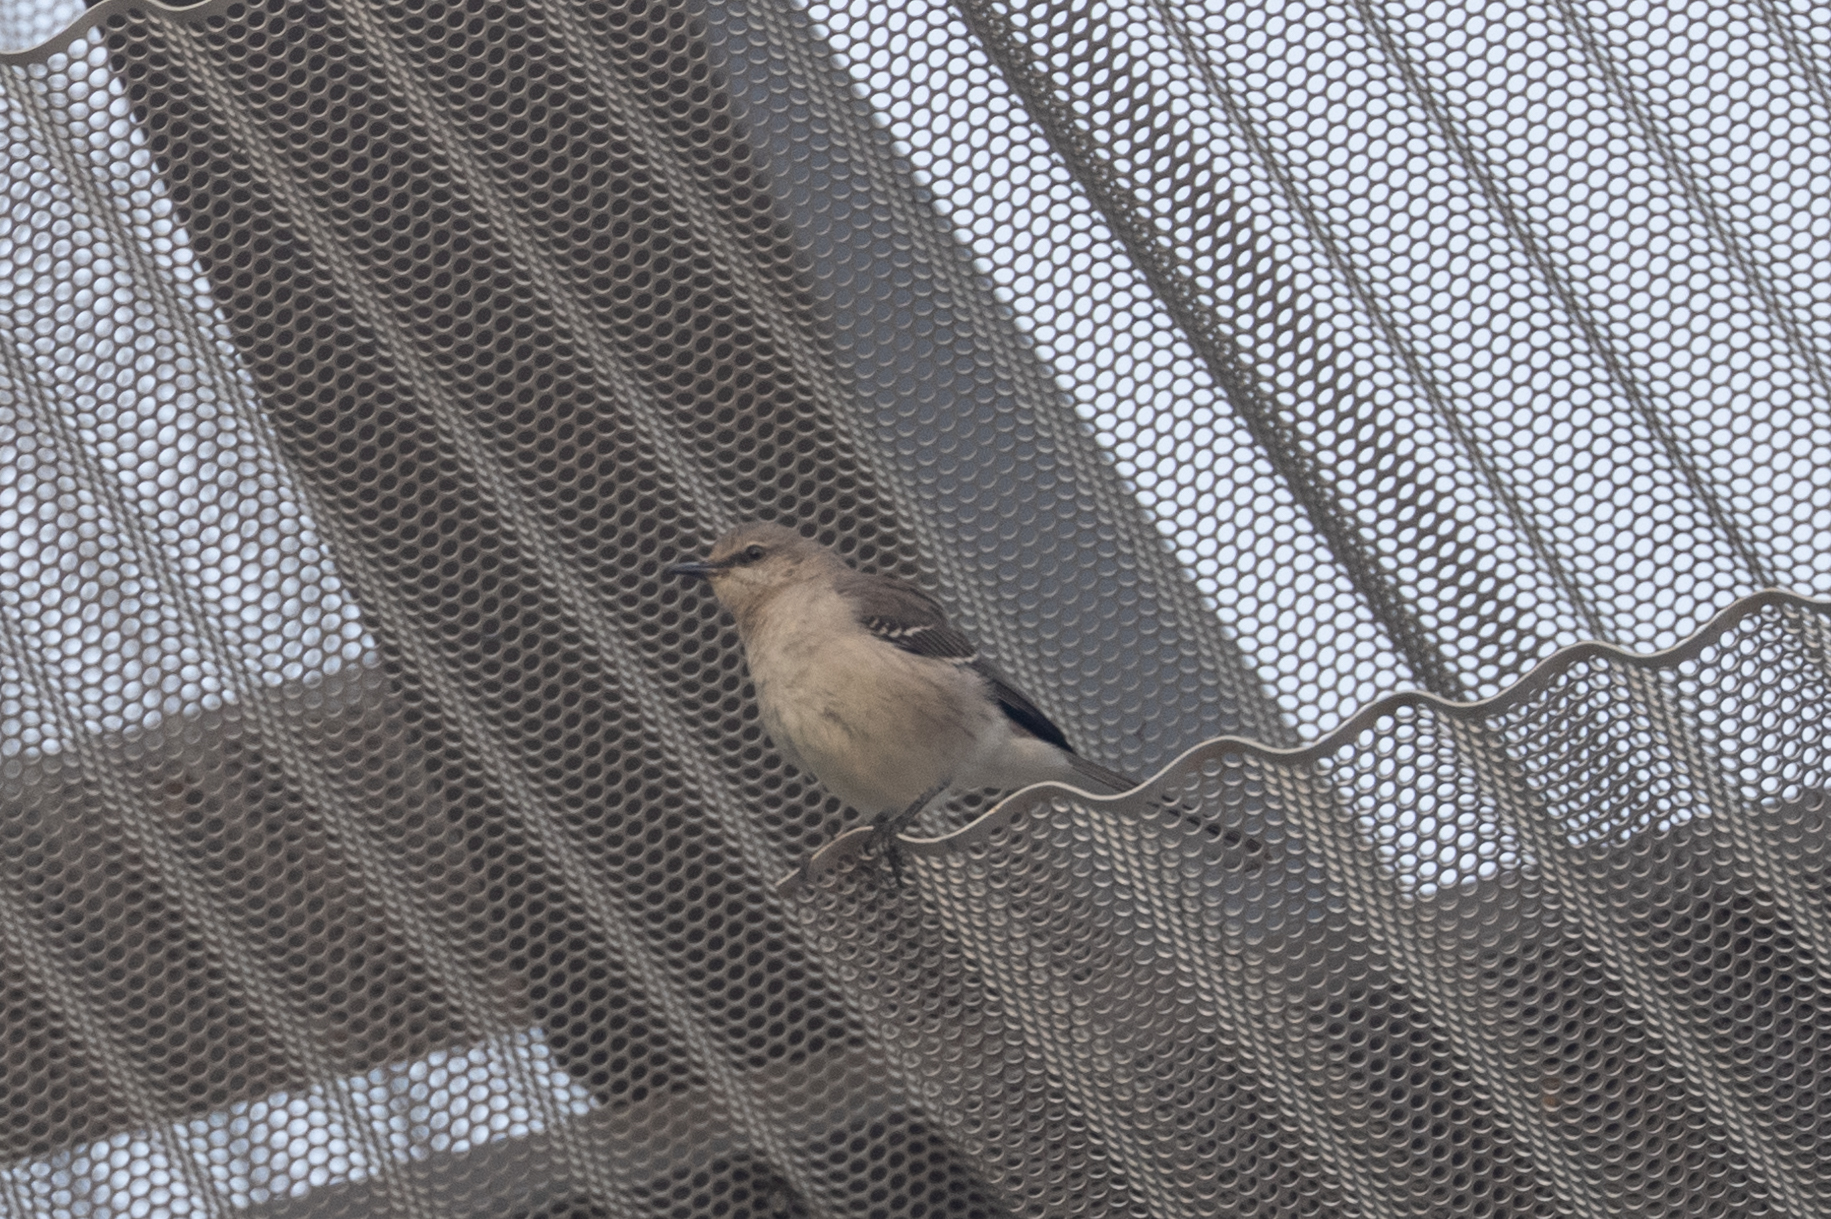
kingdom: Animalia
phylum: Chordata
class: Aves
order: Passeriformes
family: Mimidae
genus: Mimus
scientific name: Mimus polyglottos
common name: Northern mockingbird
